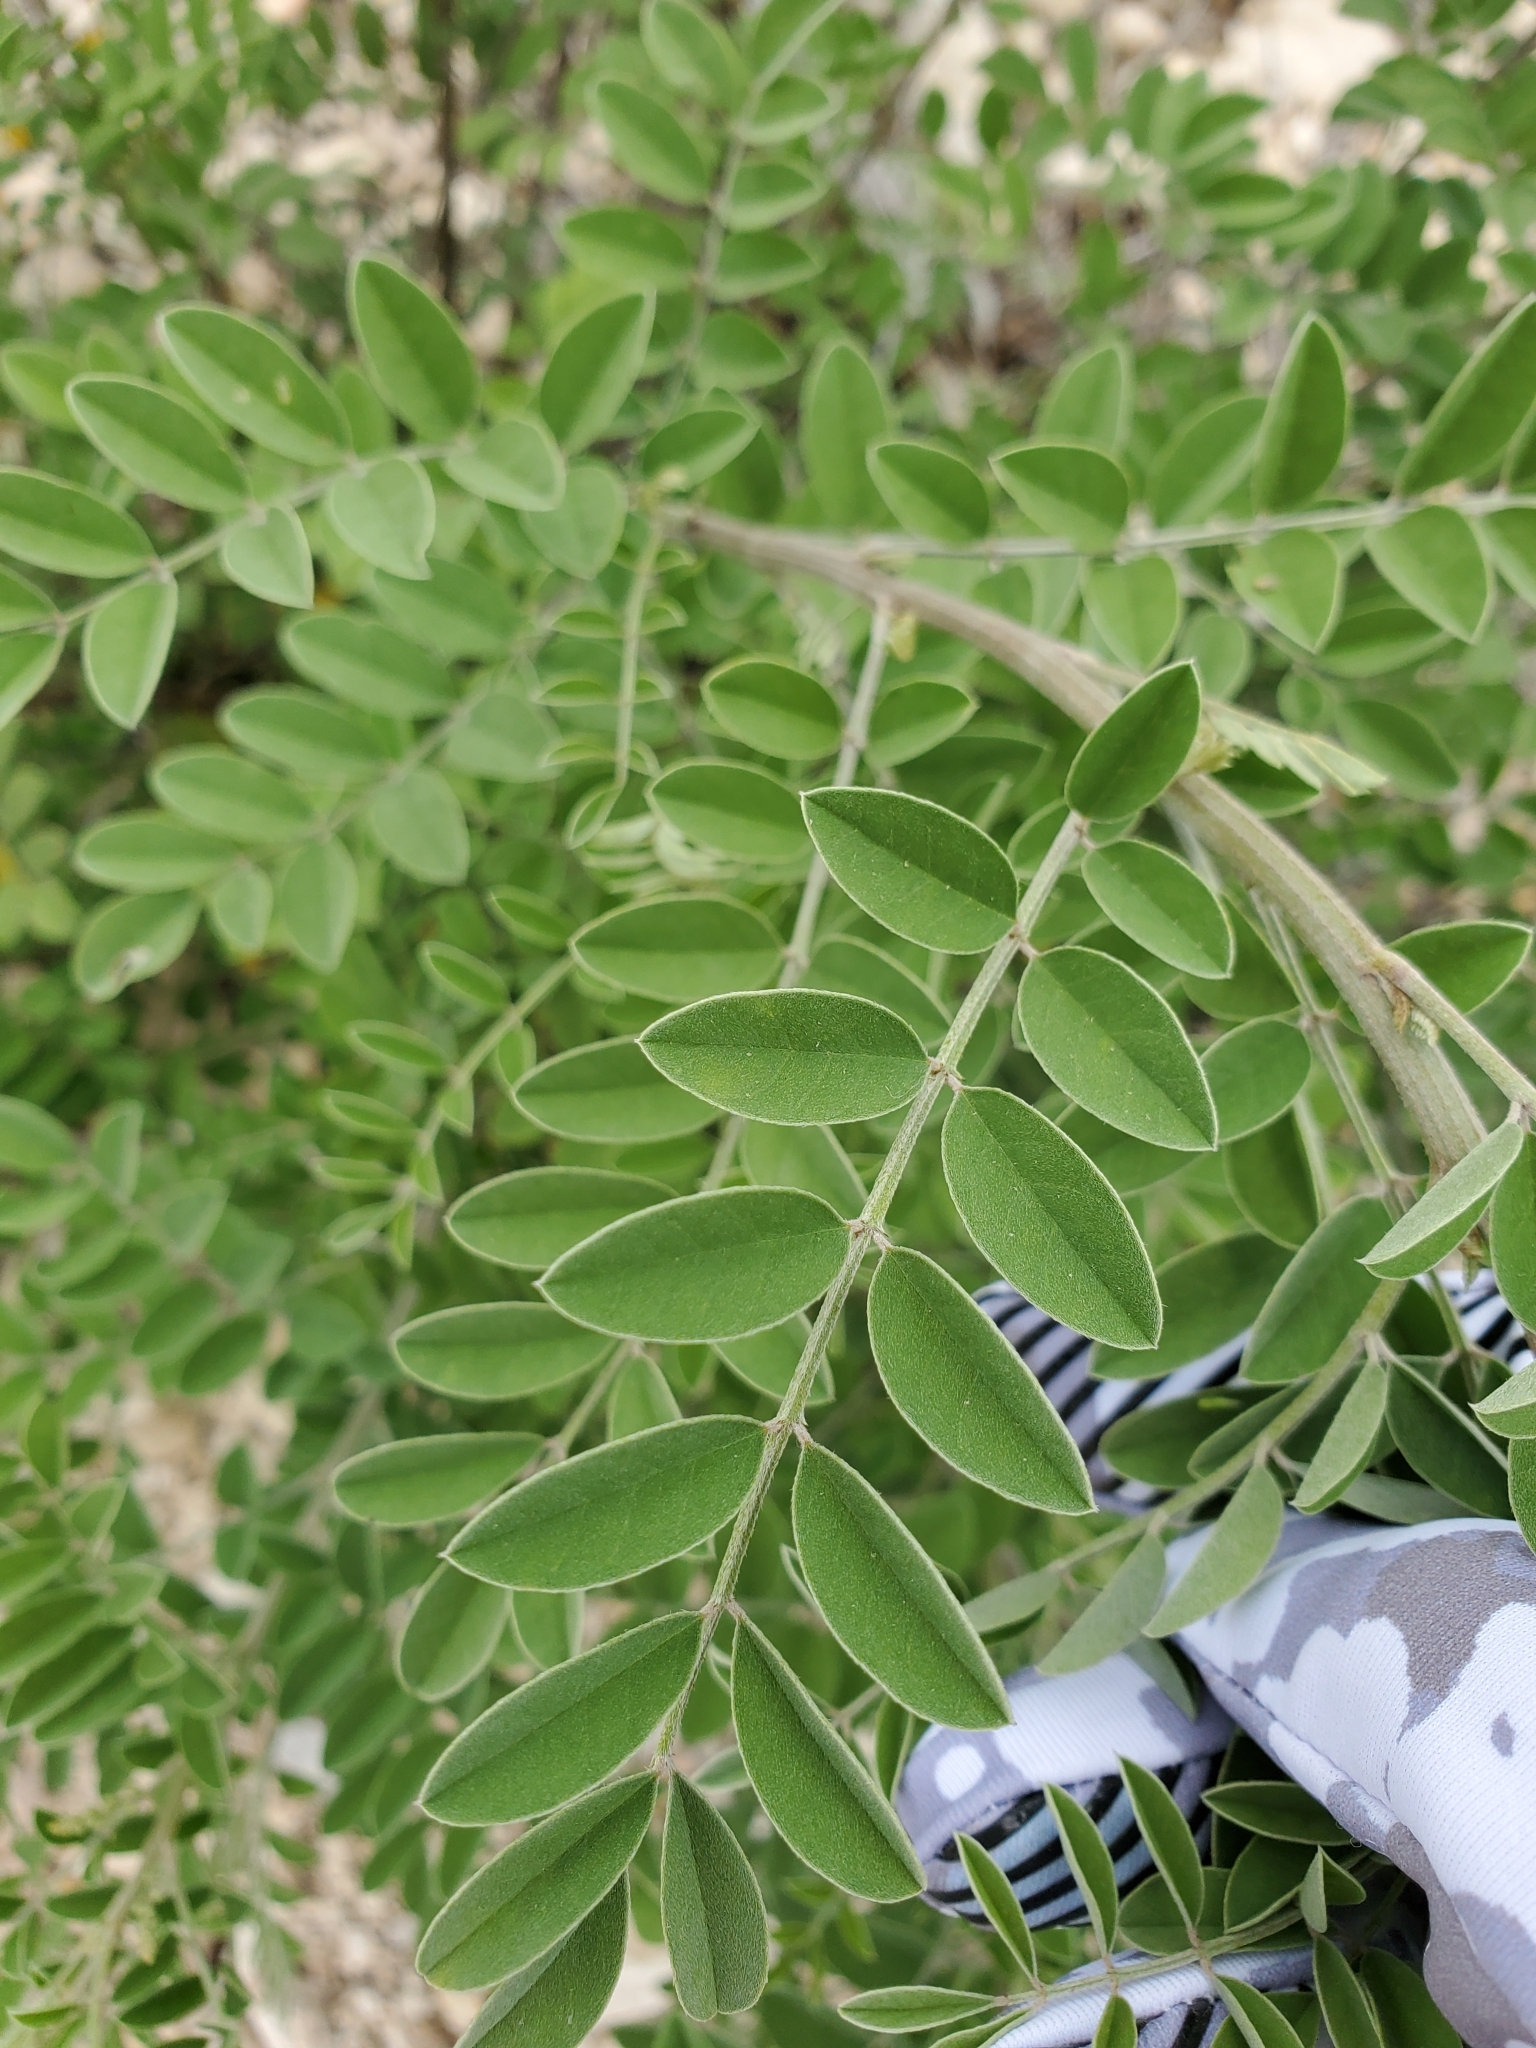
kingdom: Plantae
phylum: Tracheophyta
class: Magnoliopsida
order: Fabales
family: Fabaceae
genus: Indigofera
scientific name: Indigofera lindheimeriana
